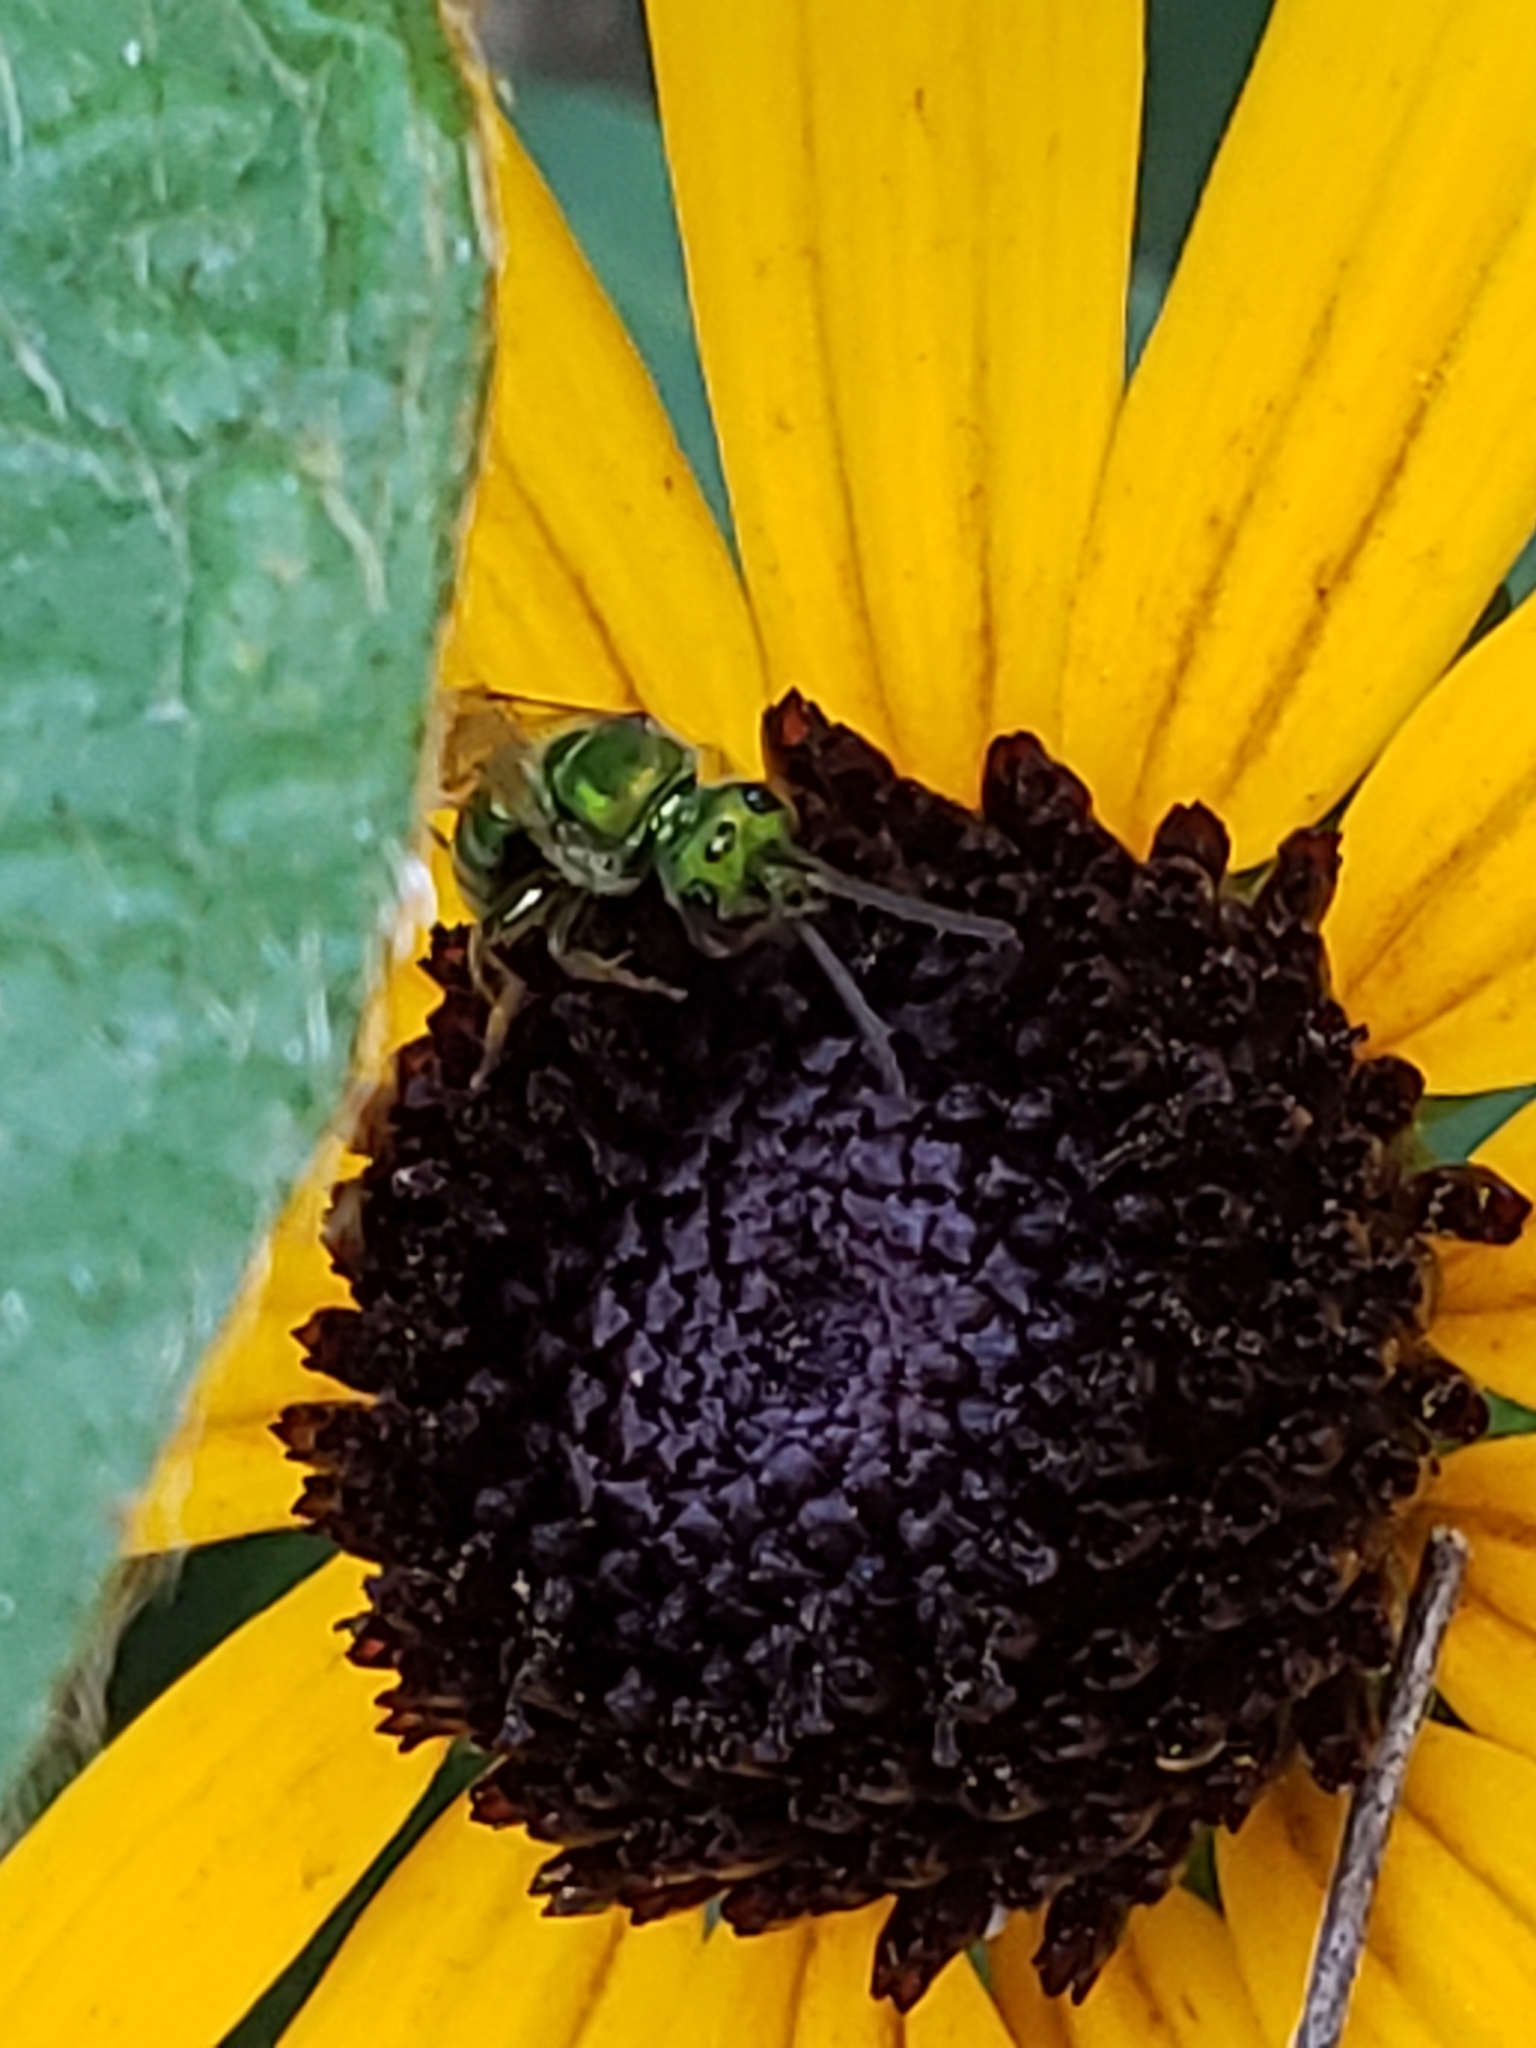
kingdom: Animalia
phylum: Arthropoda
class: Insecta
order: Hymenoptera
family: Halictidae
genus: Augochlora
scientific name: Augochlora pura
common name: Pure green sweat bee
